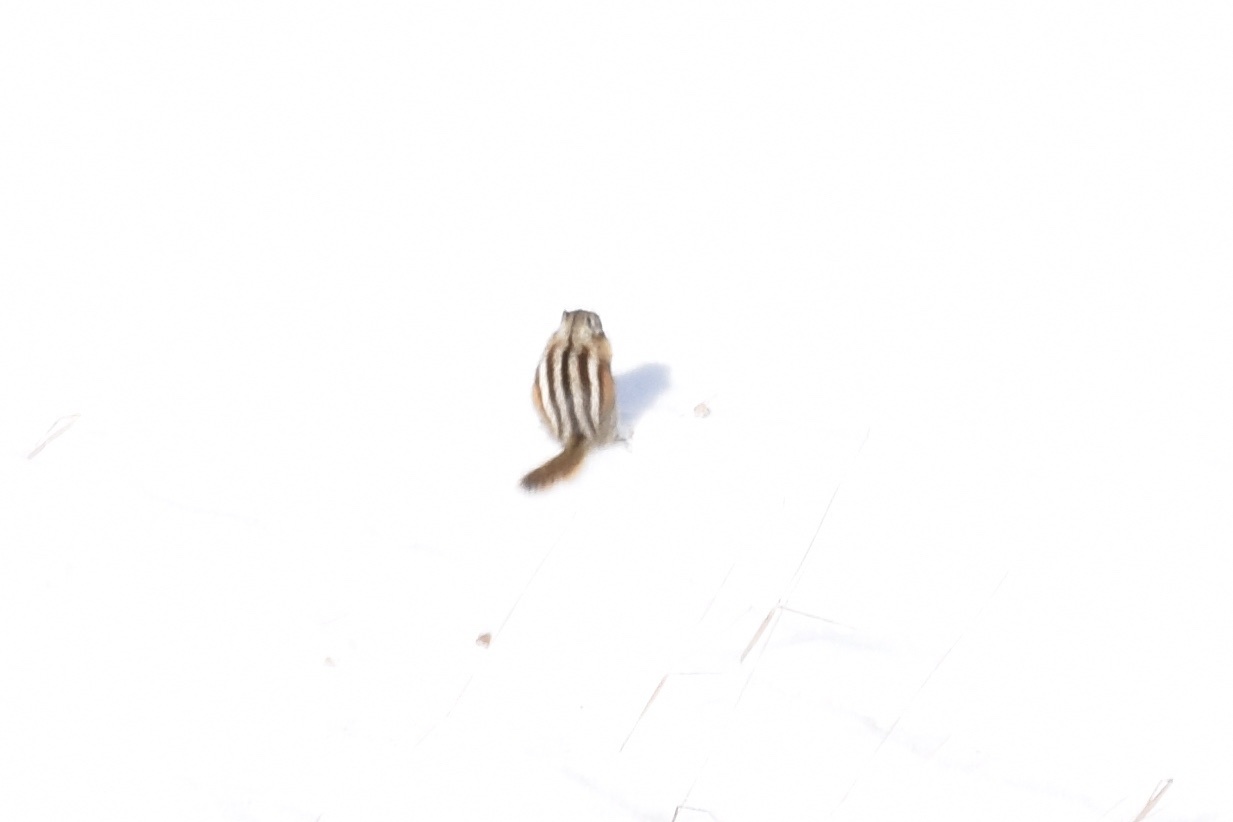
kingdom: Animalia
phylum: Chordata
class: Mammalia
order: Rodentia
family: Sciuridae
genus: Tamias
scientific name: Tamias minimus
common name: Least chipmunk
